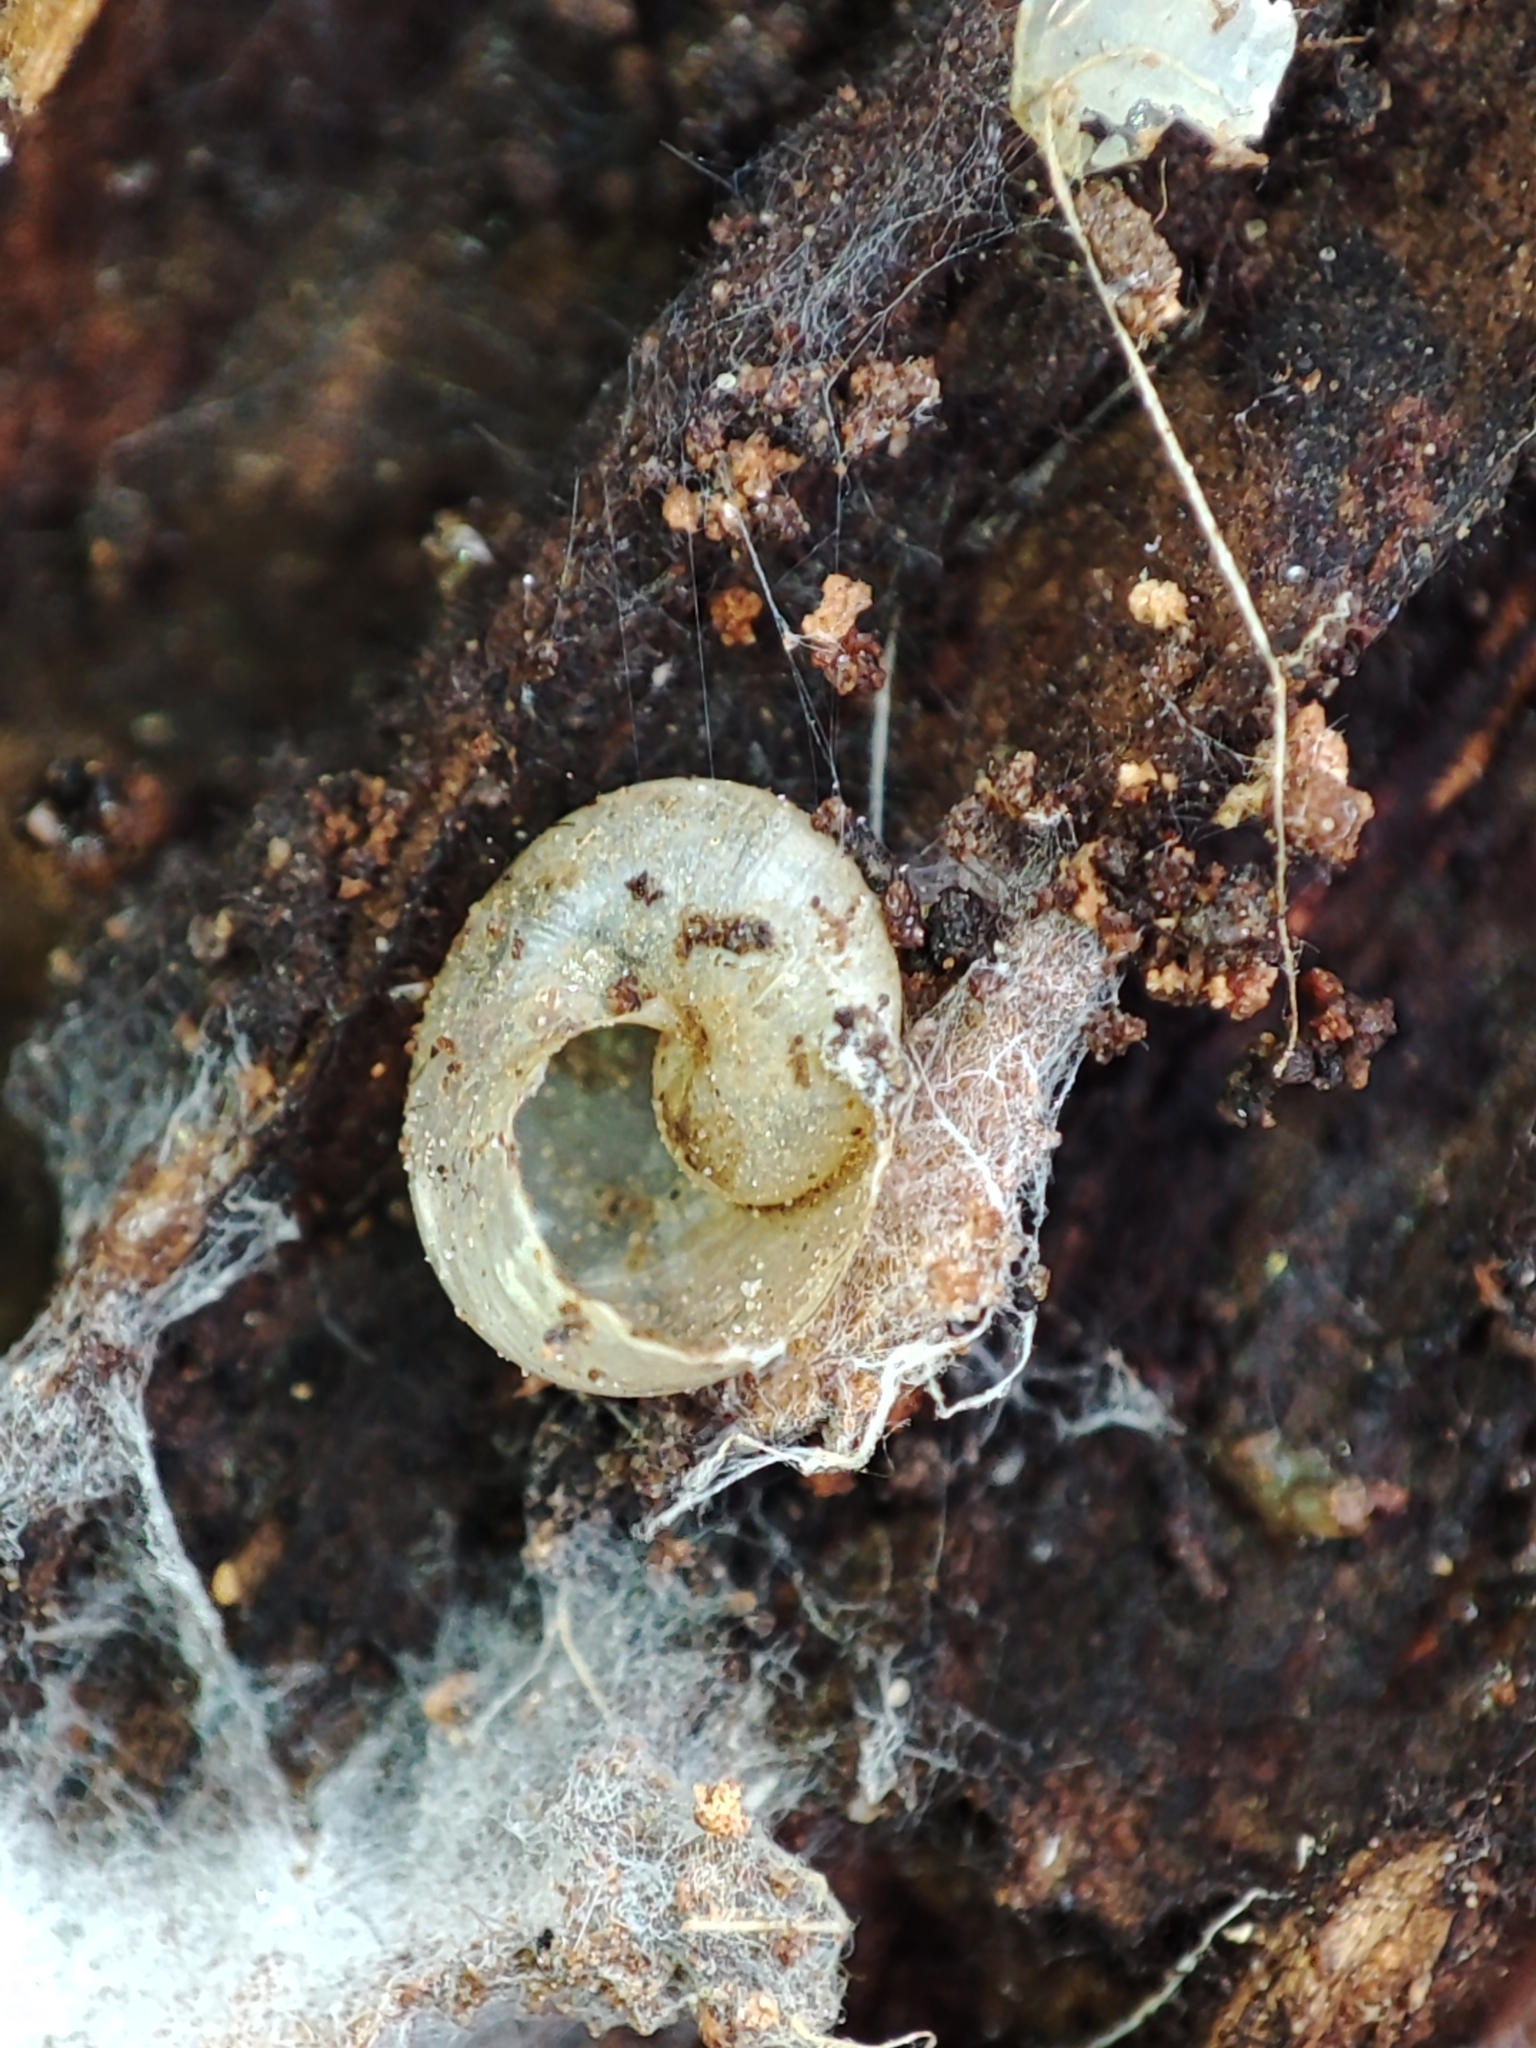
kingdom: Animalia
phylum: Mollusca
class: Gastropoda
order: Stylommatophora
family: Vitrinidae
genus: Vitrina
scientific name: Vitrina pellucida
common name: Pellucid glass snail
